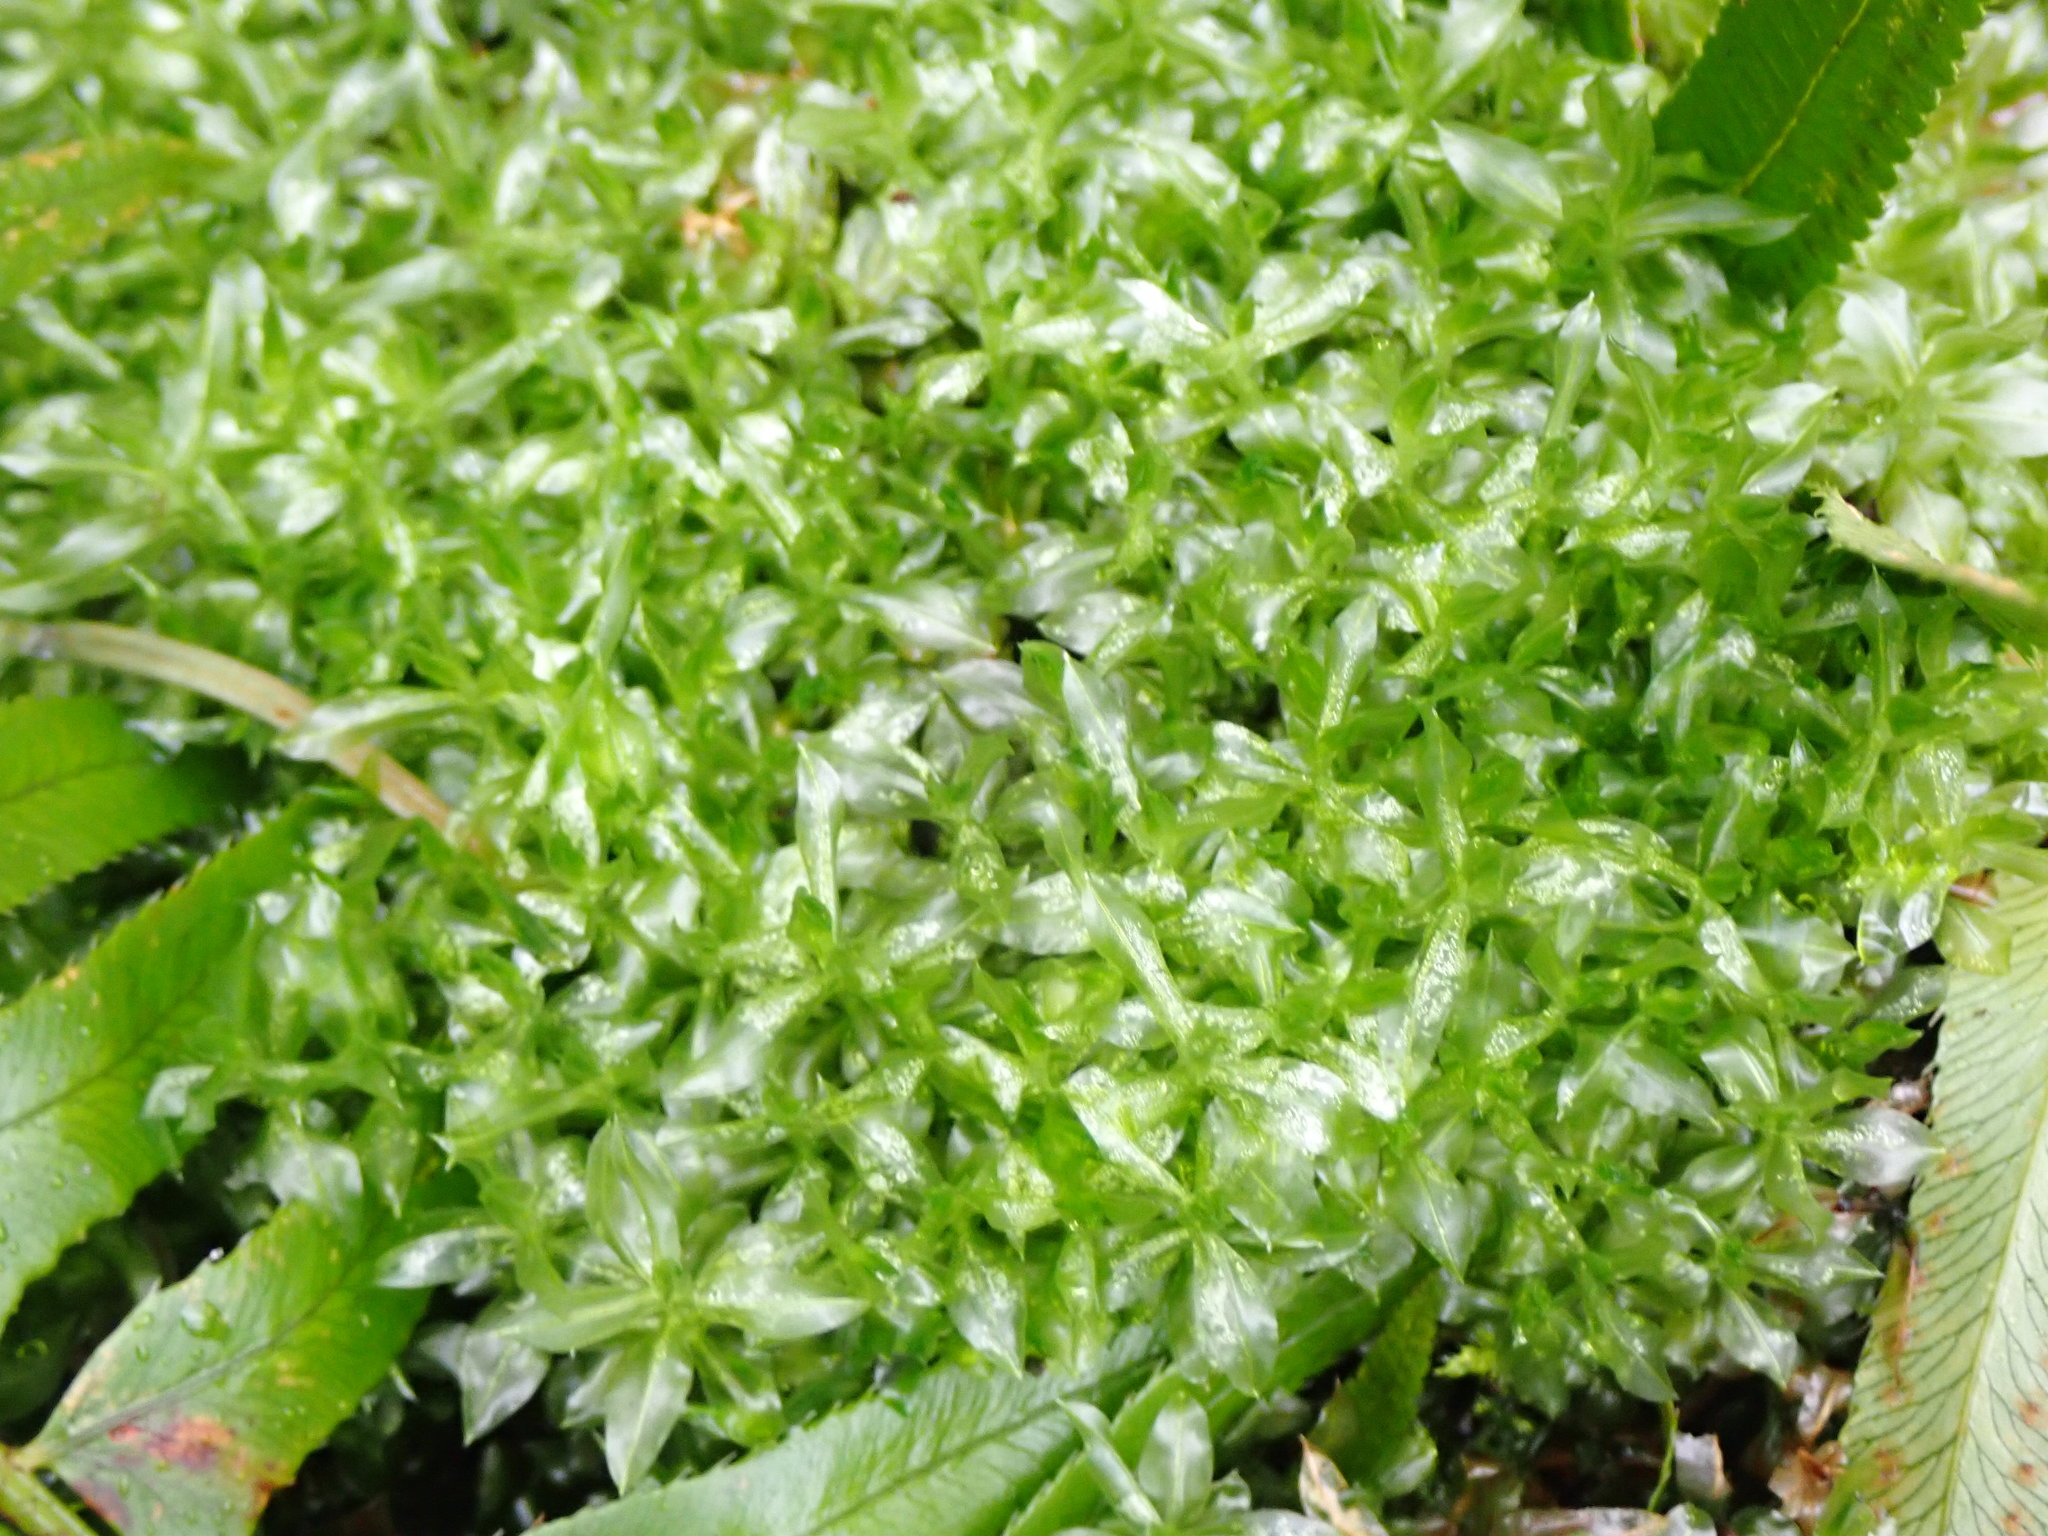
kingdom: Plantae
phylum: Bryophyta
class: Bryopsida
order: Bryales
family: Mniaceae
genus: Plagiomnium
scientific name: Plagiomnium insigne
